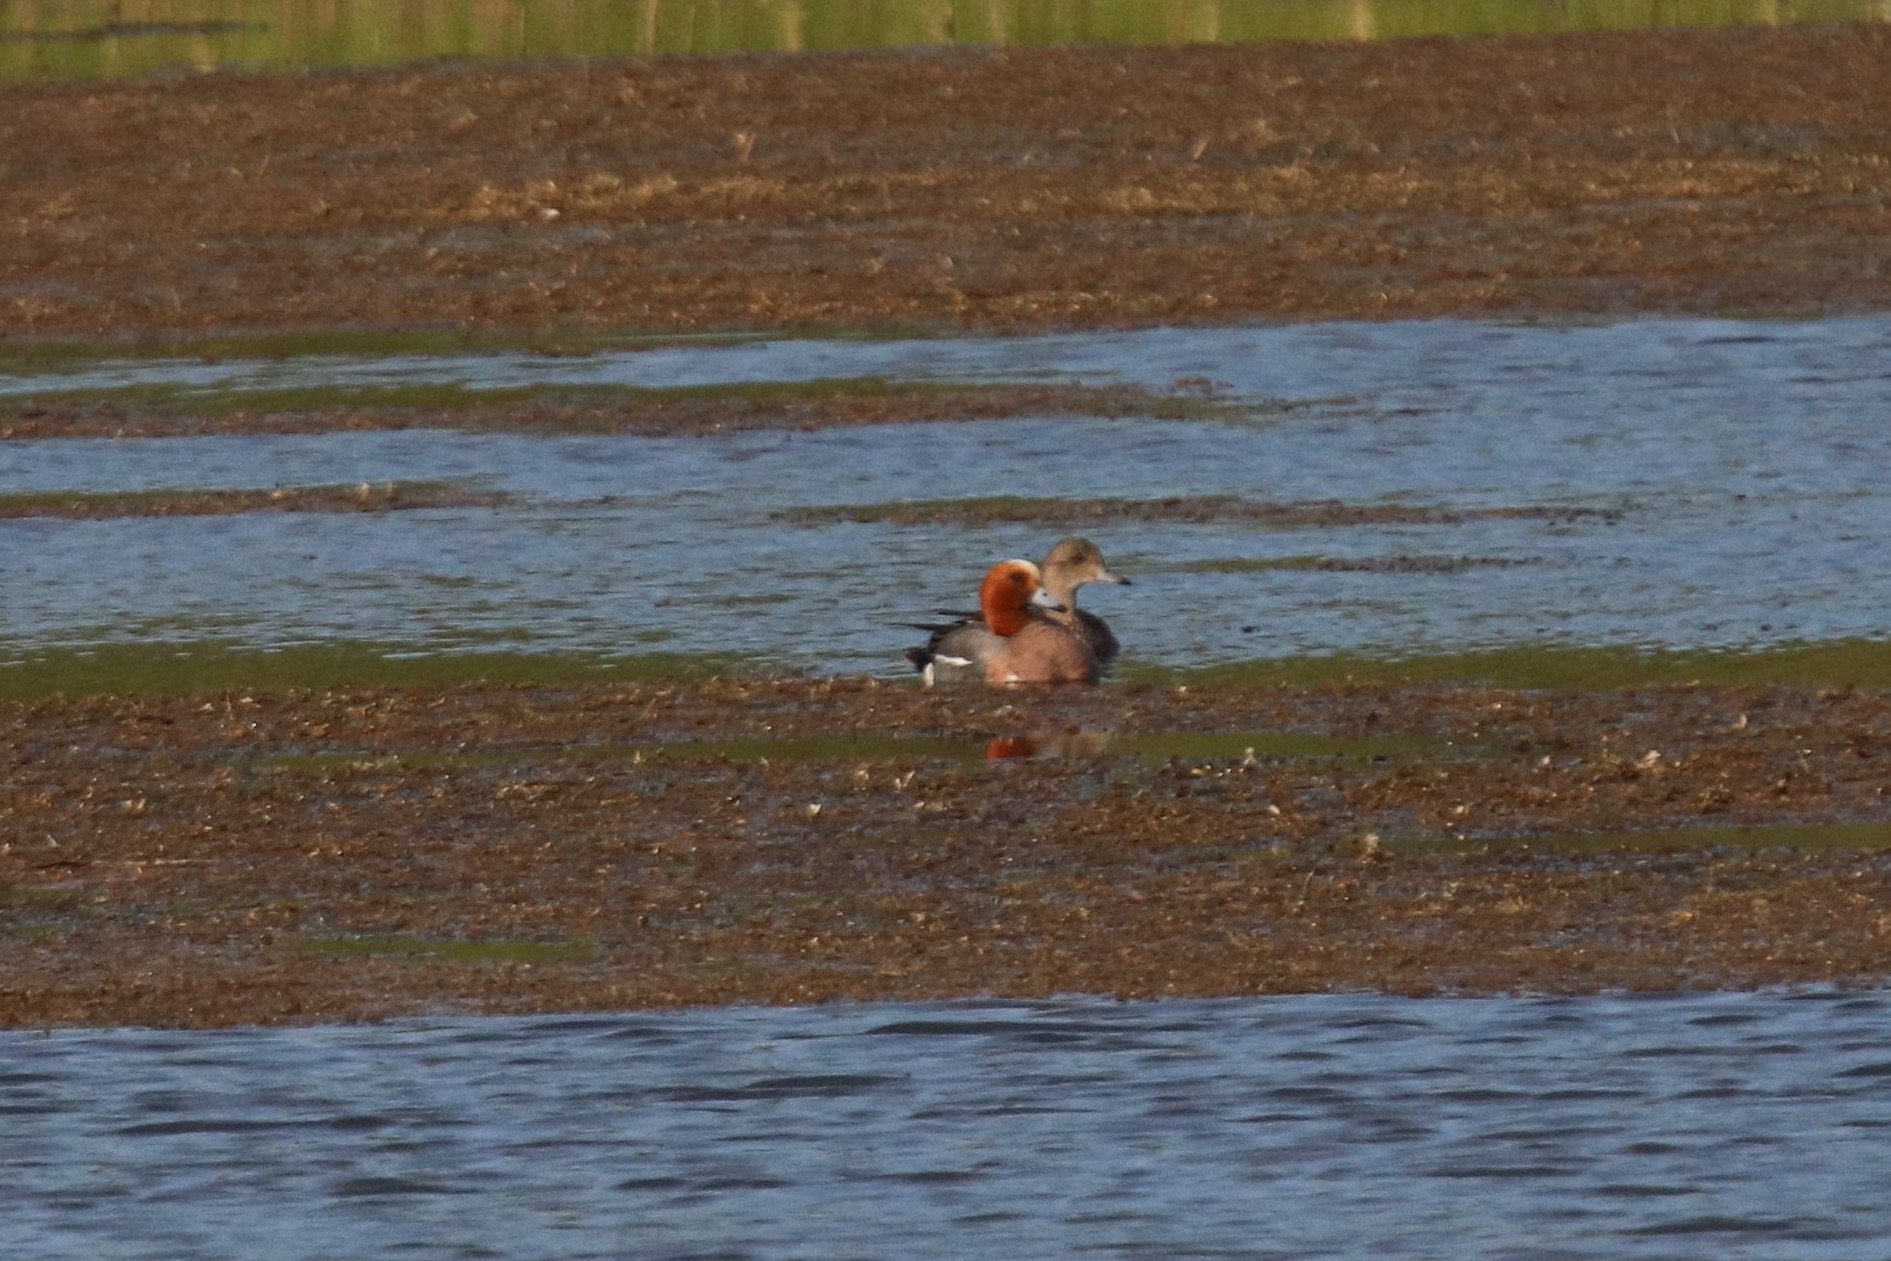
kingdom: Animalia
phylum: Chordata
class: Aves
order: Anseriformes
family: Anatidae
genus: Mareca
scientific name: Mareca penelope
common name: Eurasian wigeon
